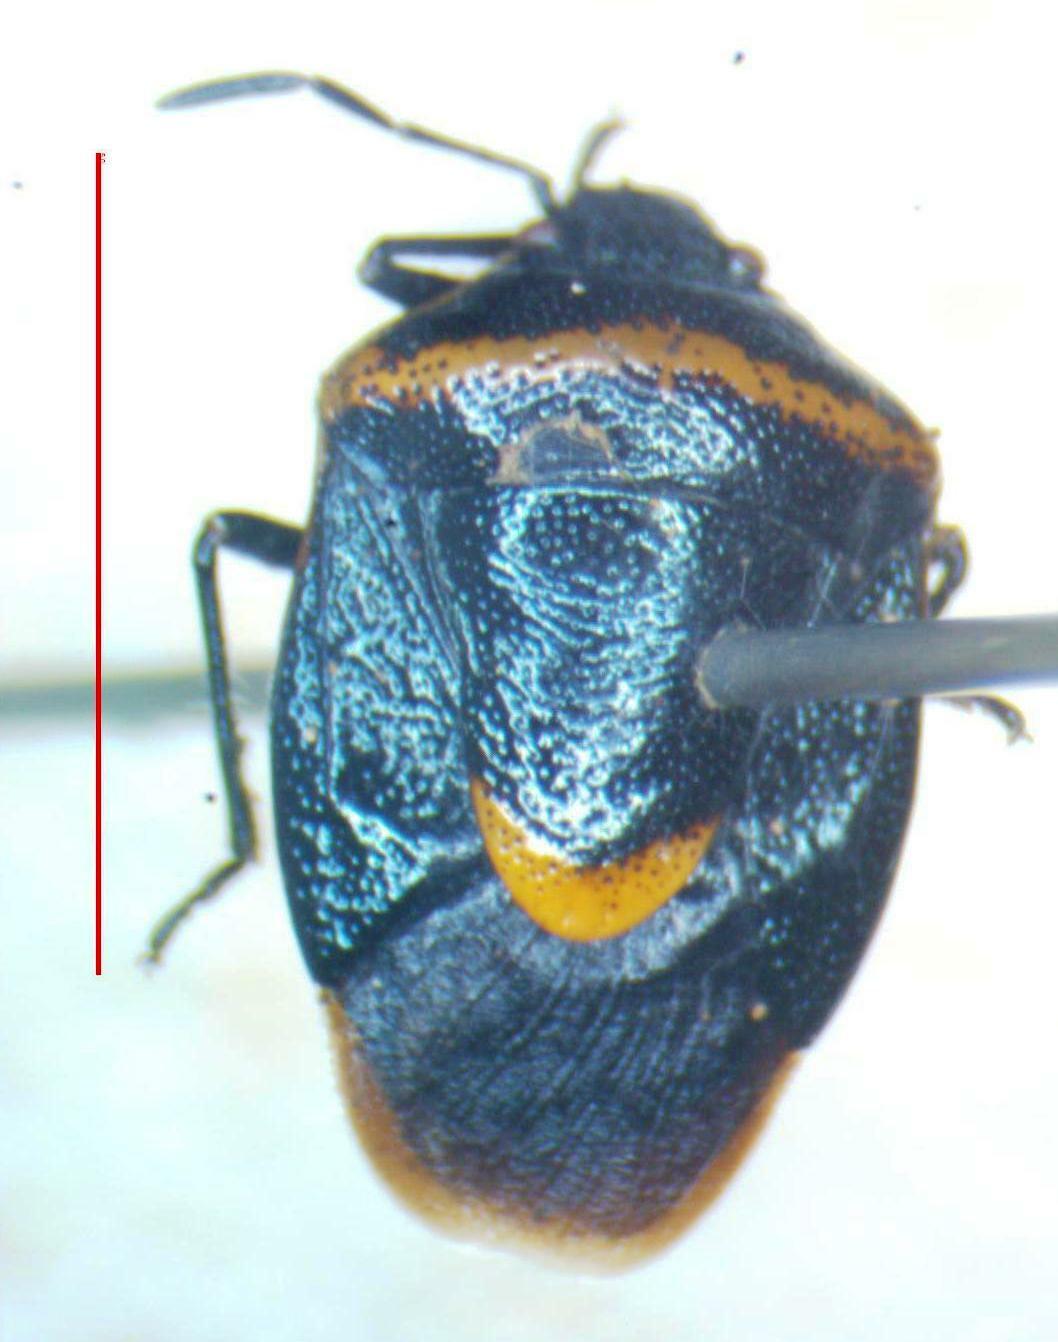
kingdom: Animalia
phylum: Arthropoda
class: Insecta
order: Hemiptera
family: Pentatomidae
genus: Cosmopepla
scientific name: Cosmopepla decorata
